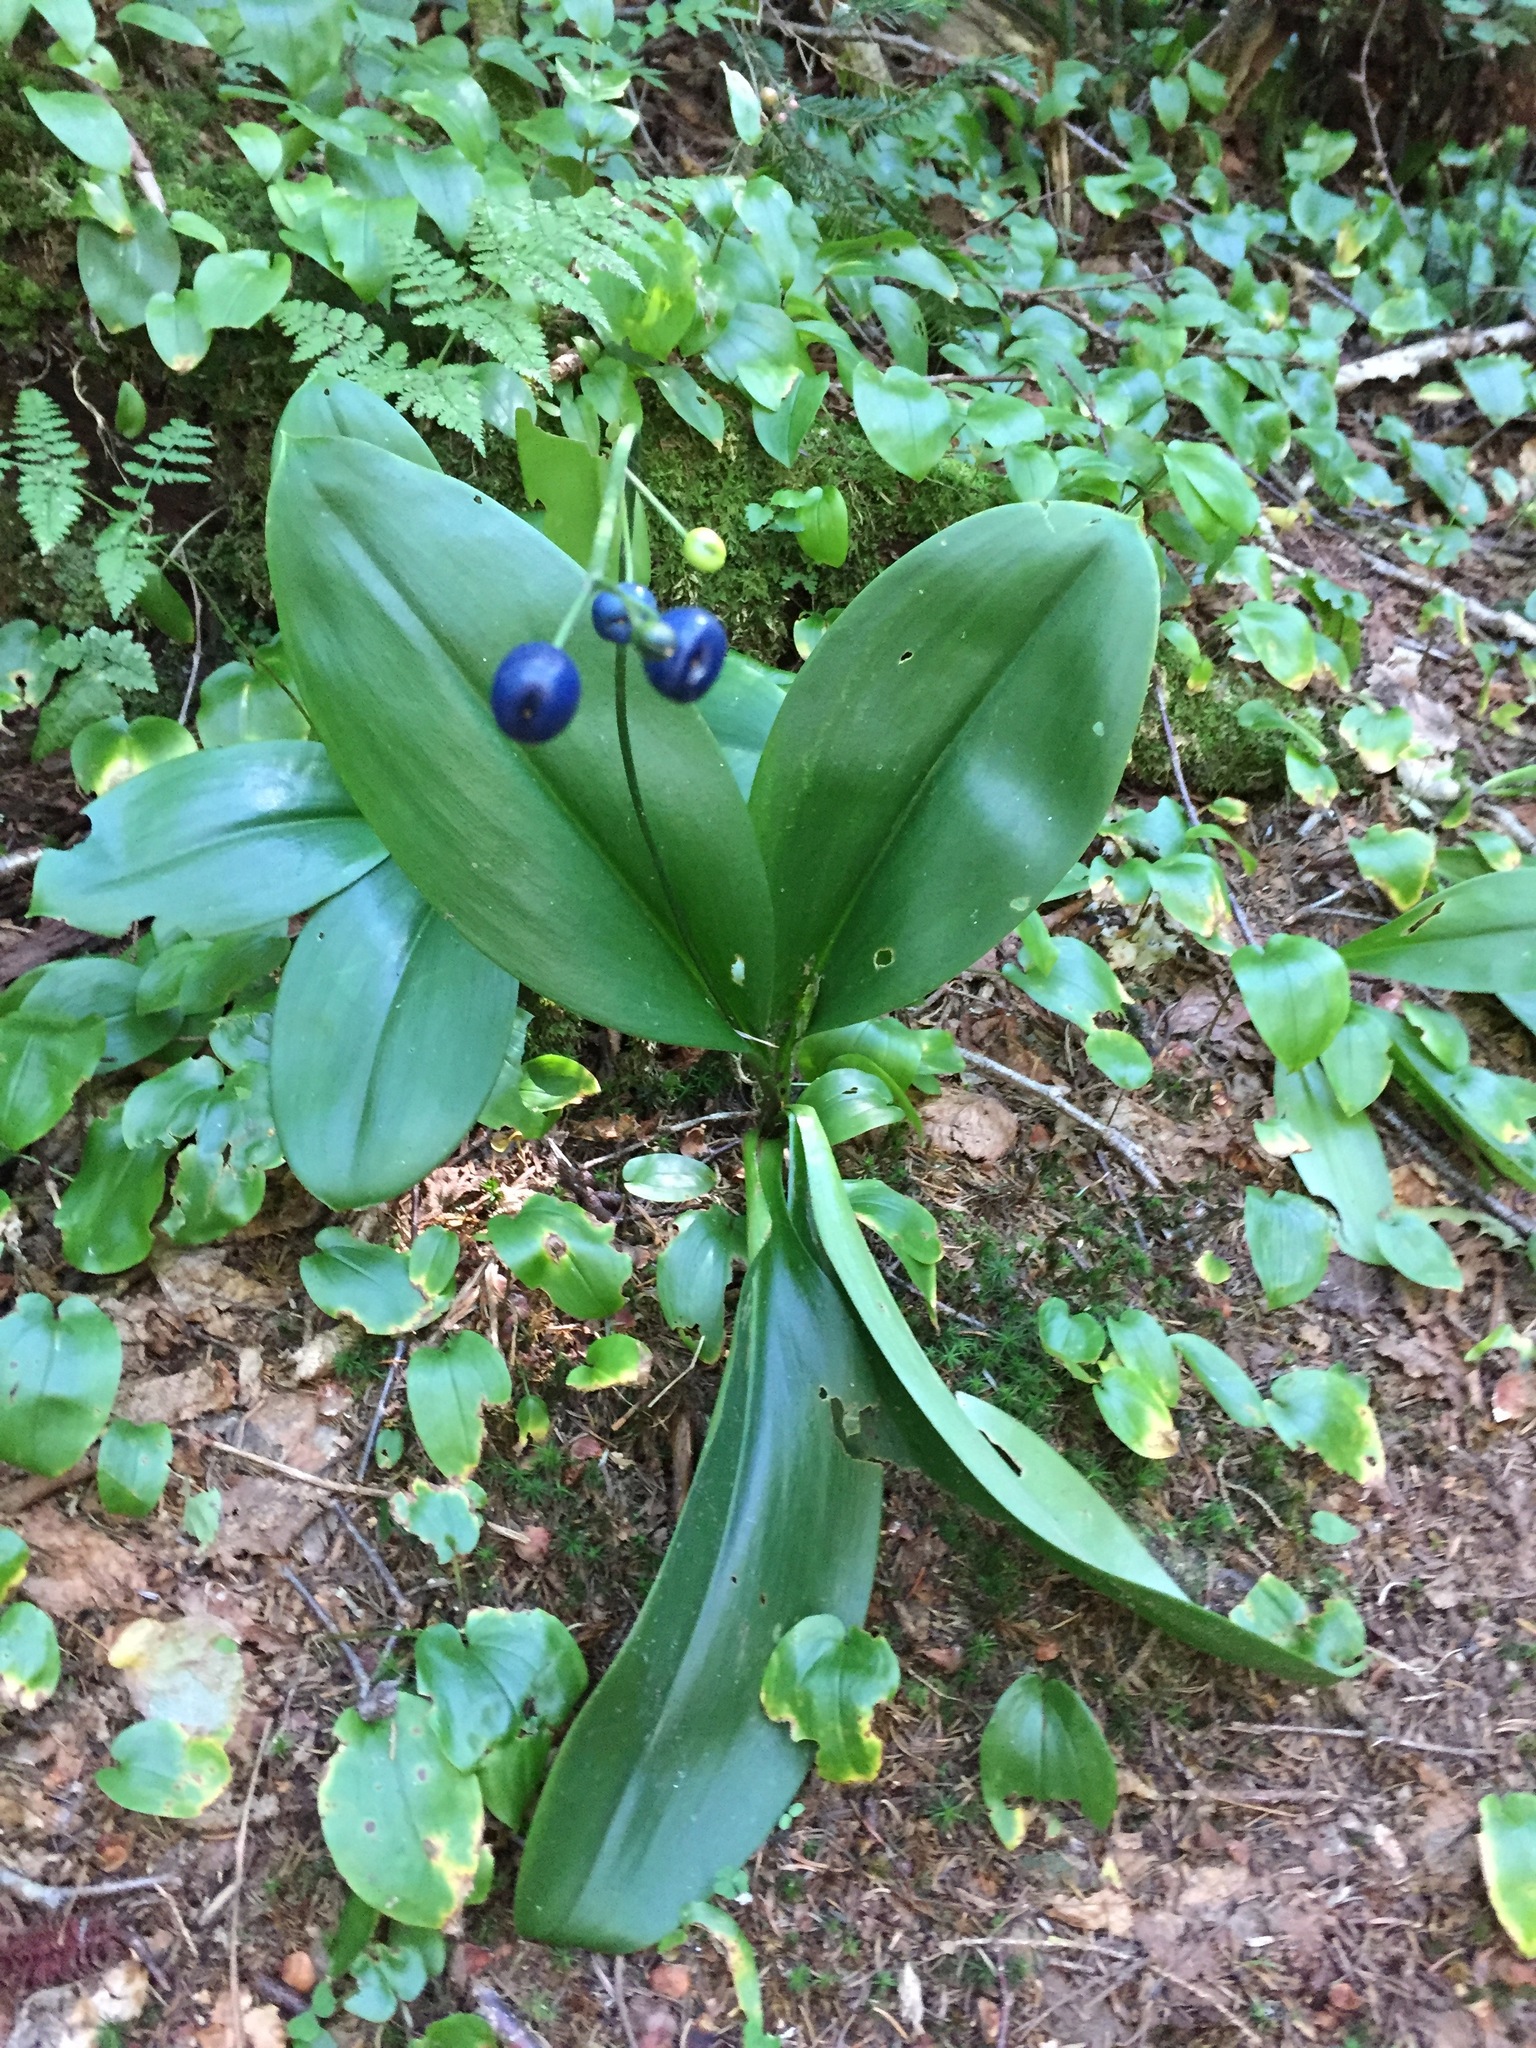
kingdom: Plantae
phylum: Tracheophyta
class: Liliopsida
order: Liliales
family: Liliaceae
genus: Clintonia
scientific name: Clintonia borealis
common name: Yellow clintonia
